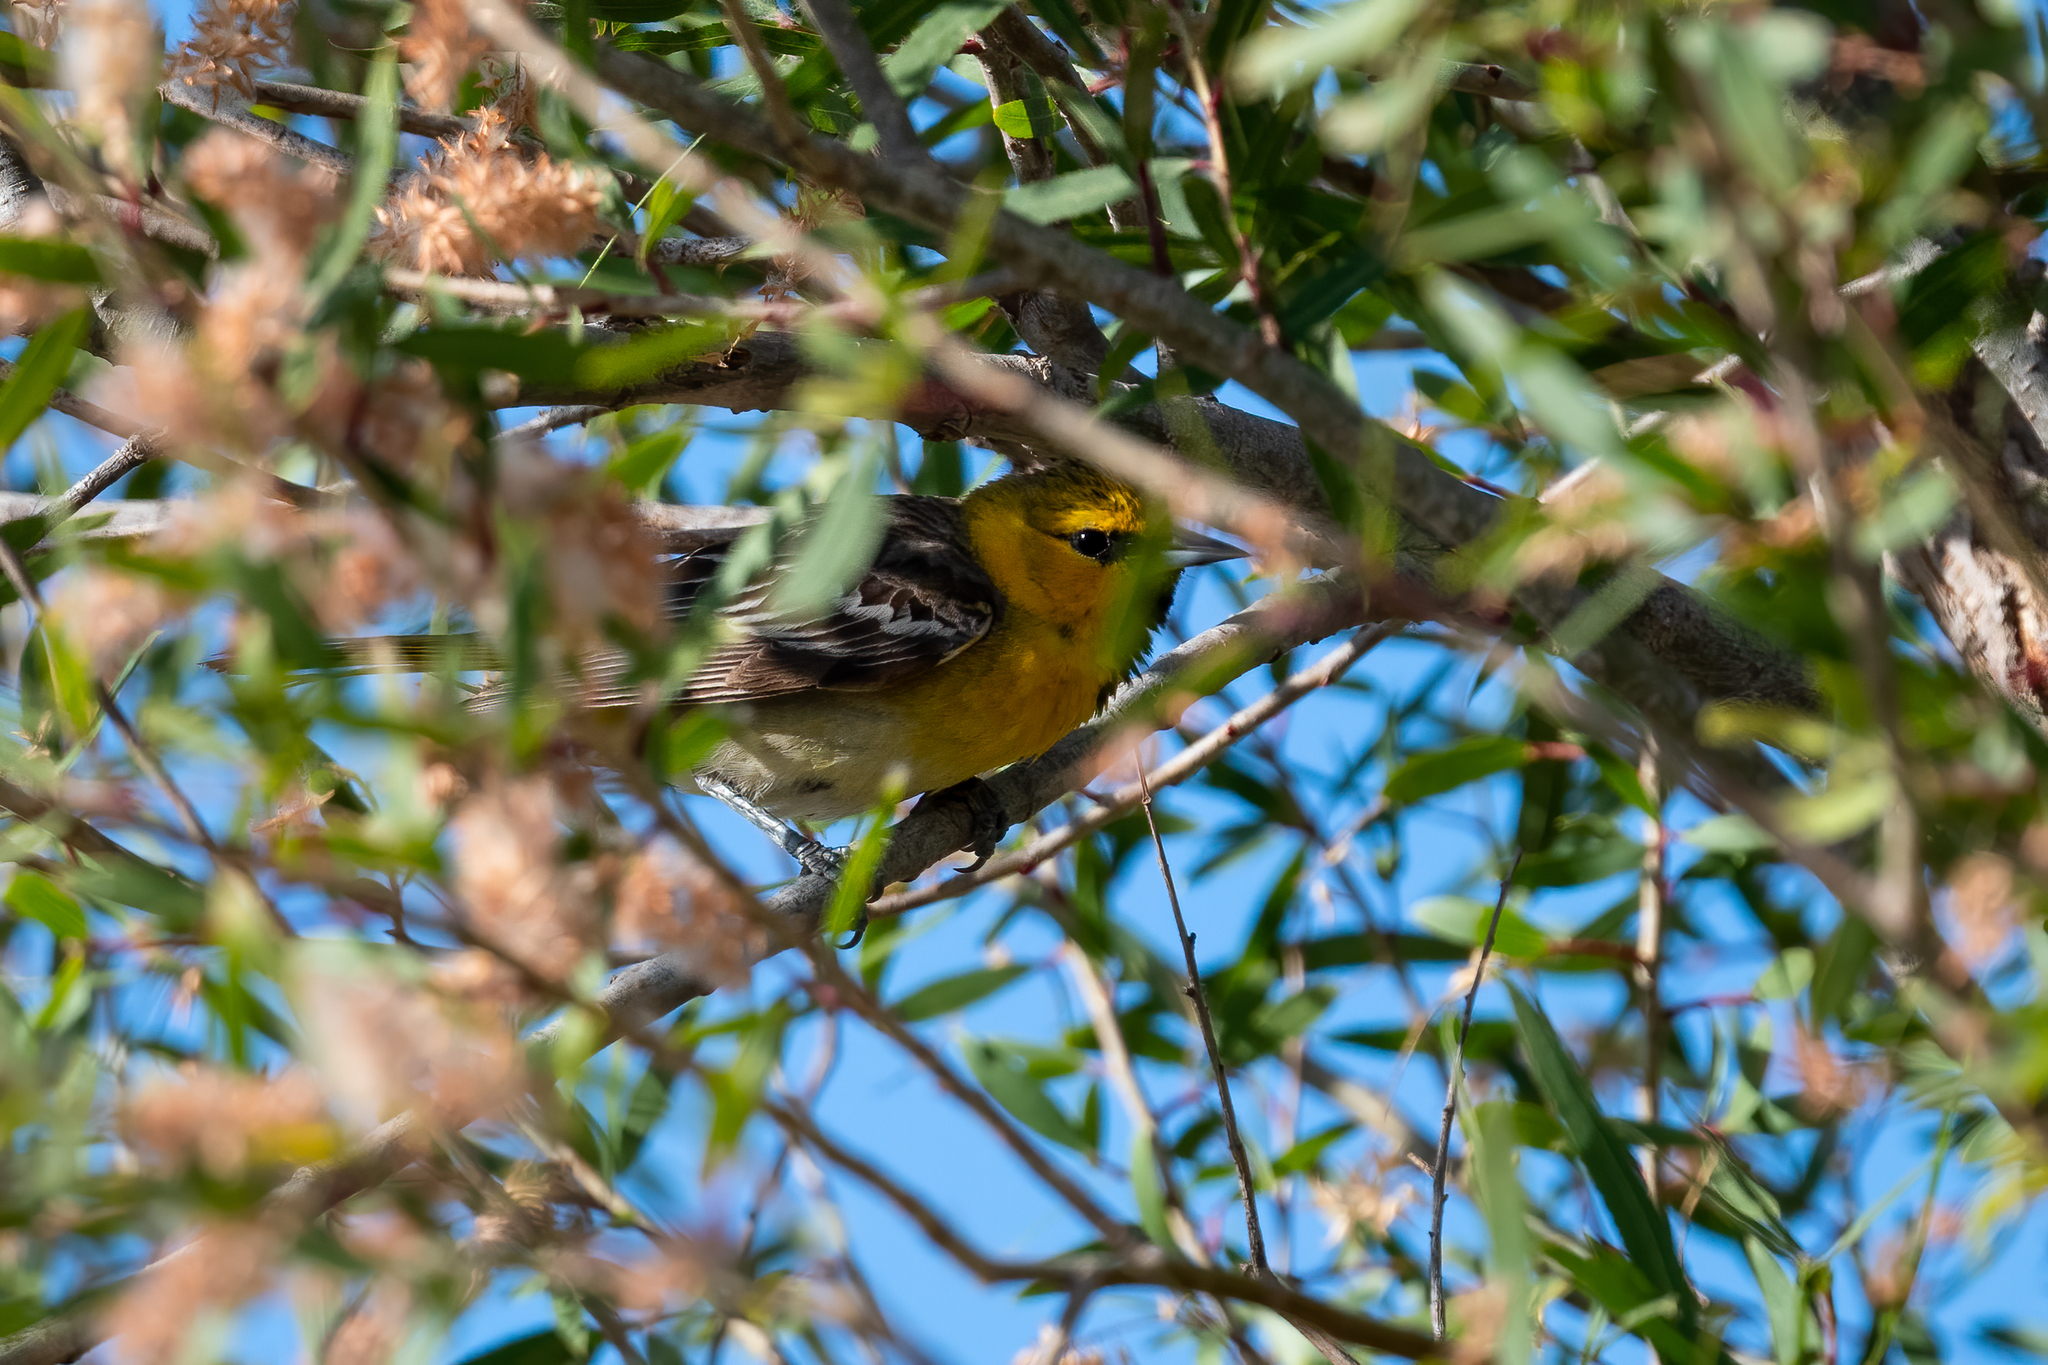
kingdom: Animalia
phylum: Chordata
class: Aves
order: Passeriformes
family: Icteridae
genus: Icterus
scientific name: Icterus bullockii
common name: Bullock's oriole
